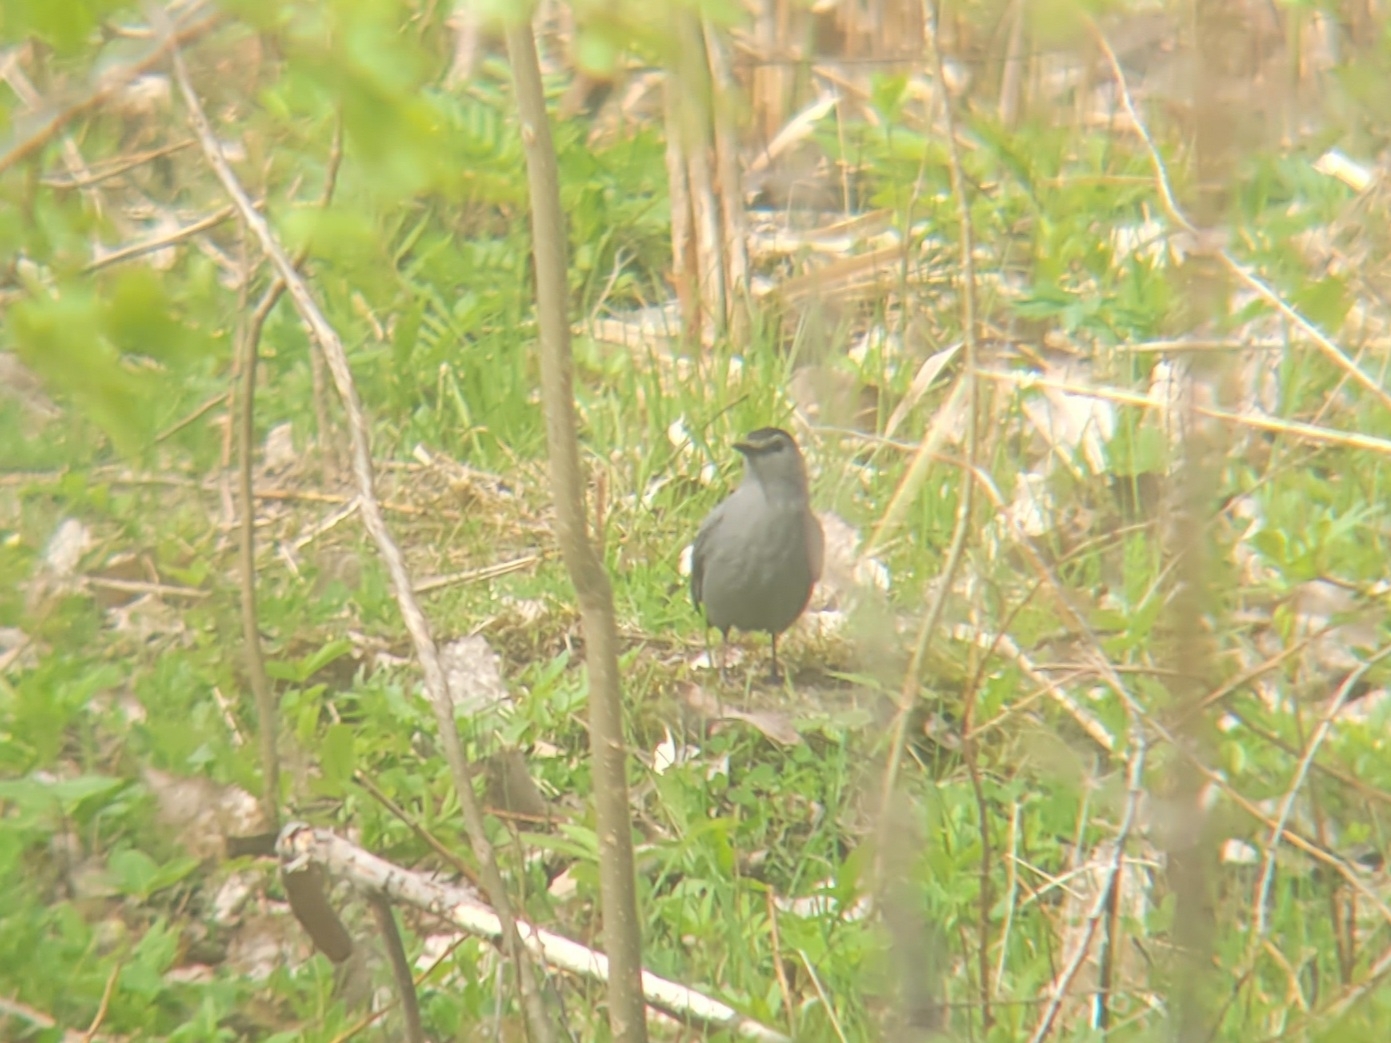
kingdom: Animalia
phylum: Chordata
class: Aves
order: Passeriformes
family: Mimidae
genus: Dumetella
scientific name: Dumetella carolinensis
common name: Gray catbird
